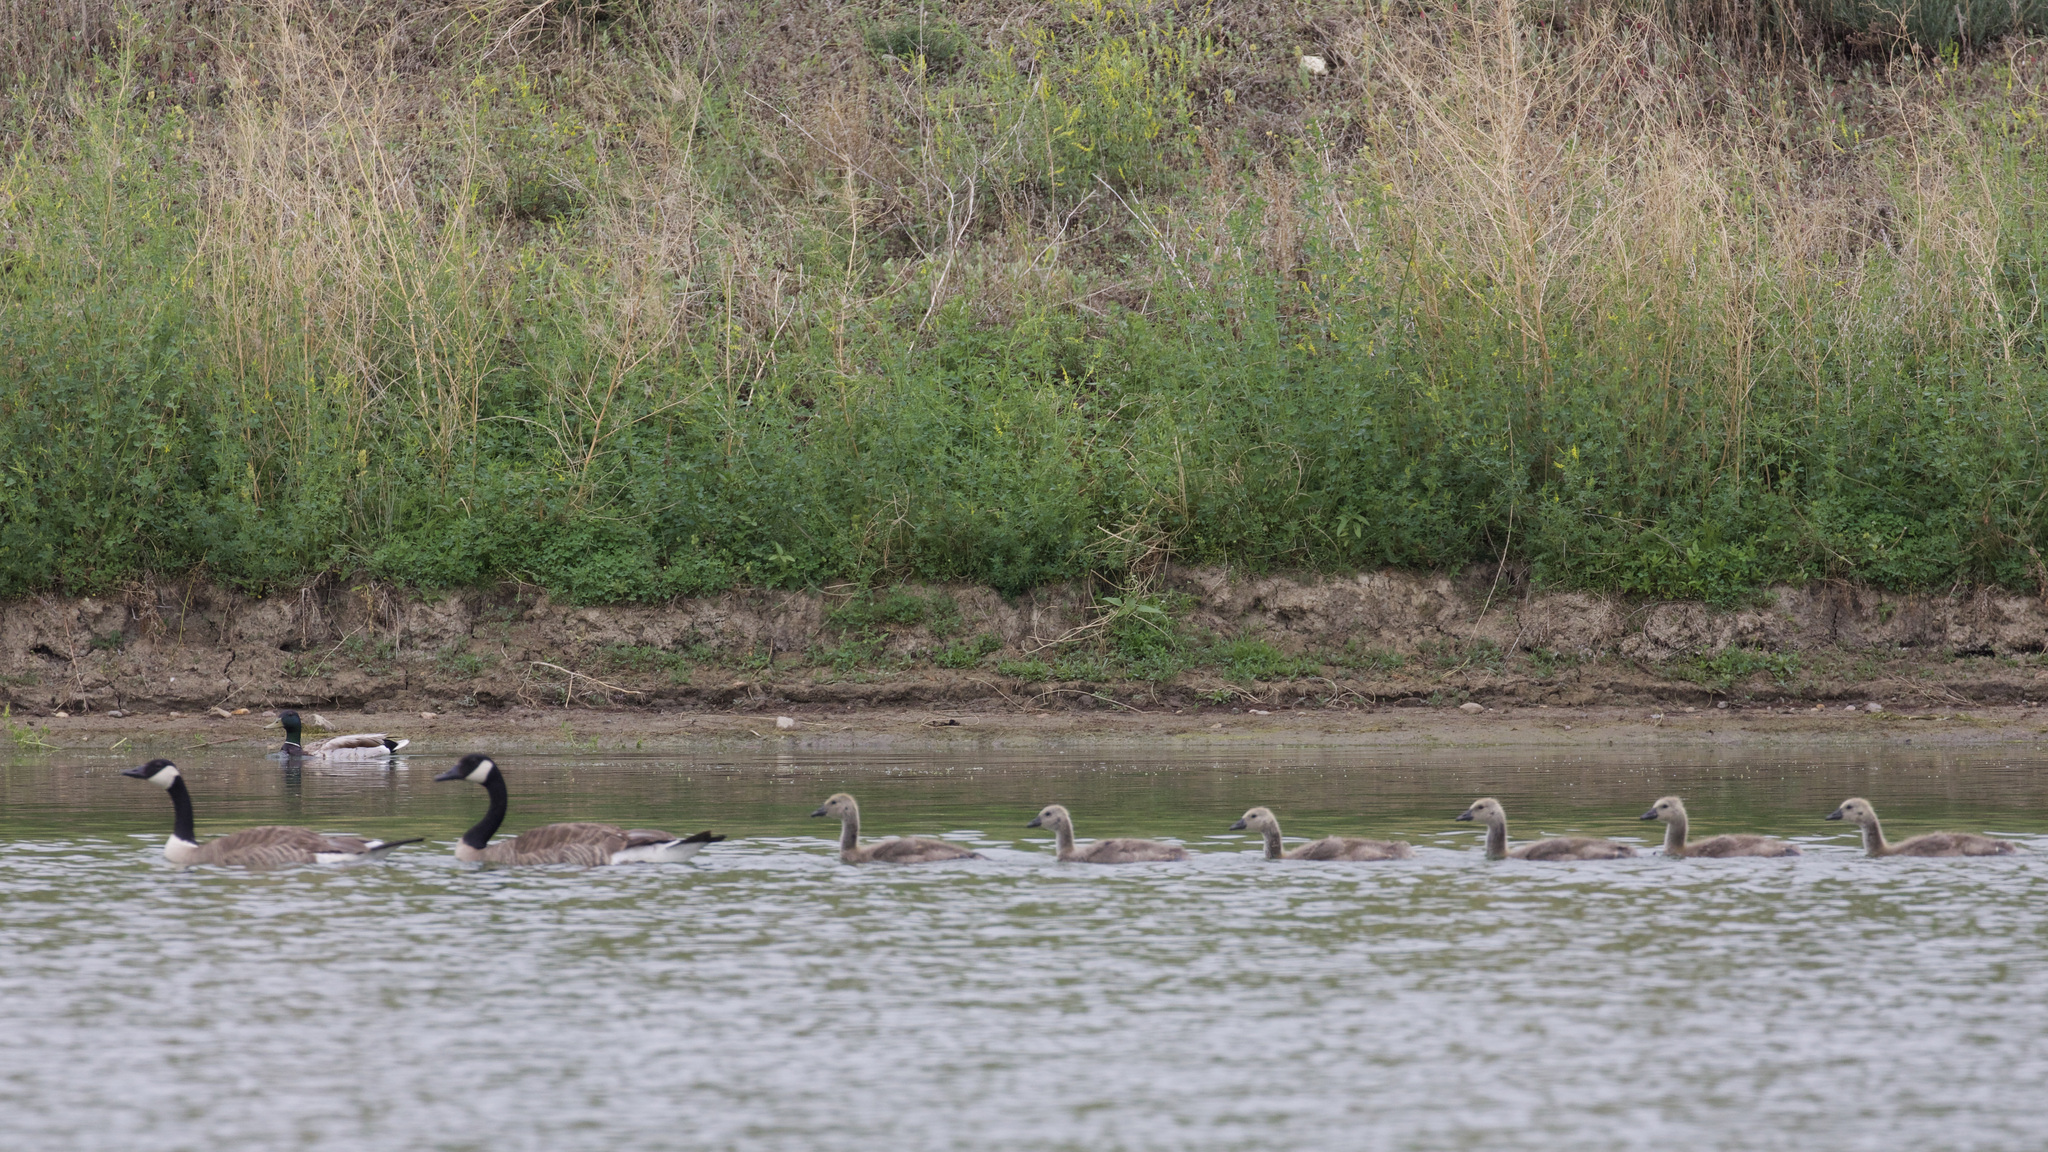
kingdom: Animalia
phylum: Chordata
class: Aves
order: Anseriformes
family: Anatidae
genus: Branta
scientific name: Branta canadensis
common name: Canada goose
